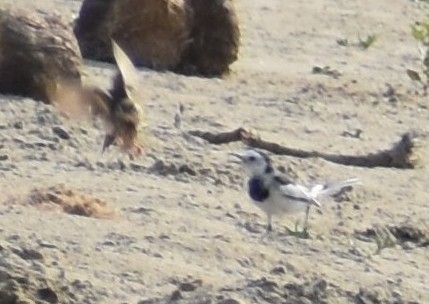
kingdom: Animalia
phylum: Chordata
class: Aves
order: Passeriformes
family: Motacillidae
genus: Motacilla
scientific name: Motacilla alba
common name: White wagtail
